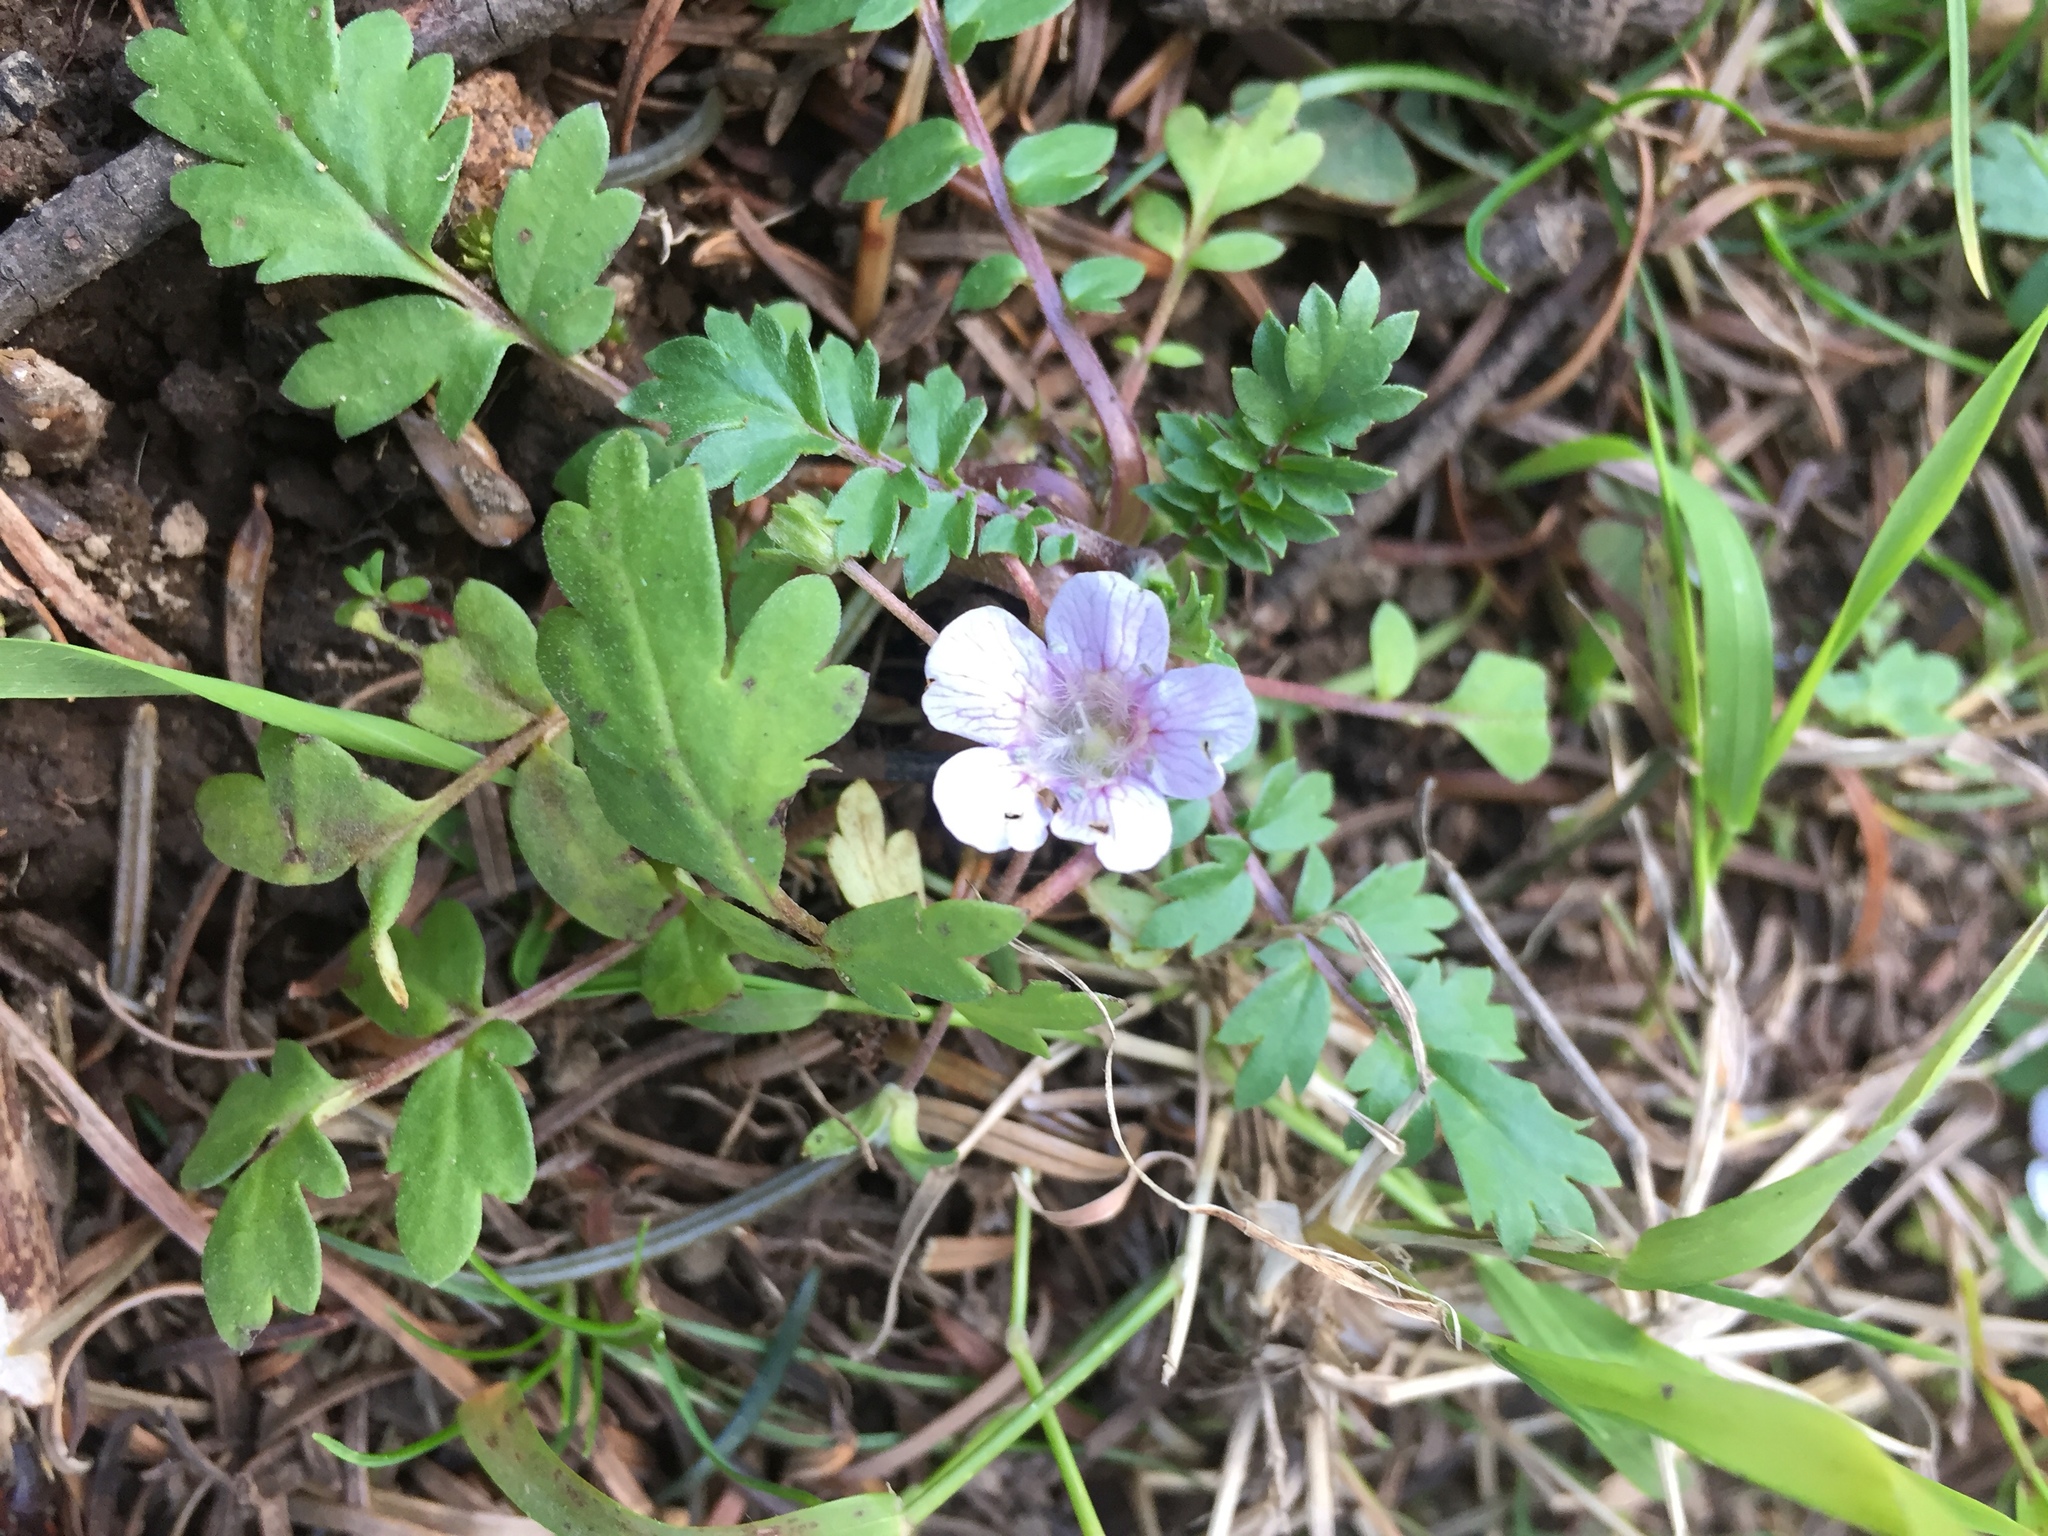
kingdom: Plantae
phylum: Tracheophyta
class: Magnoliopsida
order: Boraginales
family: Hydrophyllaceae
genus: Phacelia
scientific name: Phacelia platycarpa
